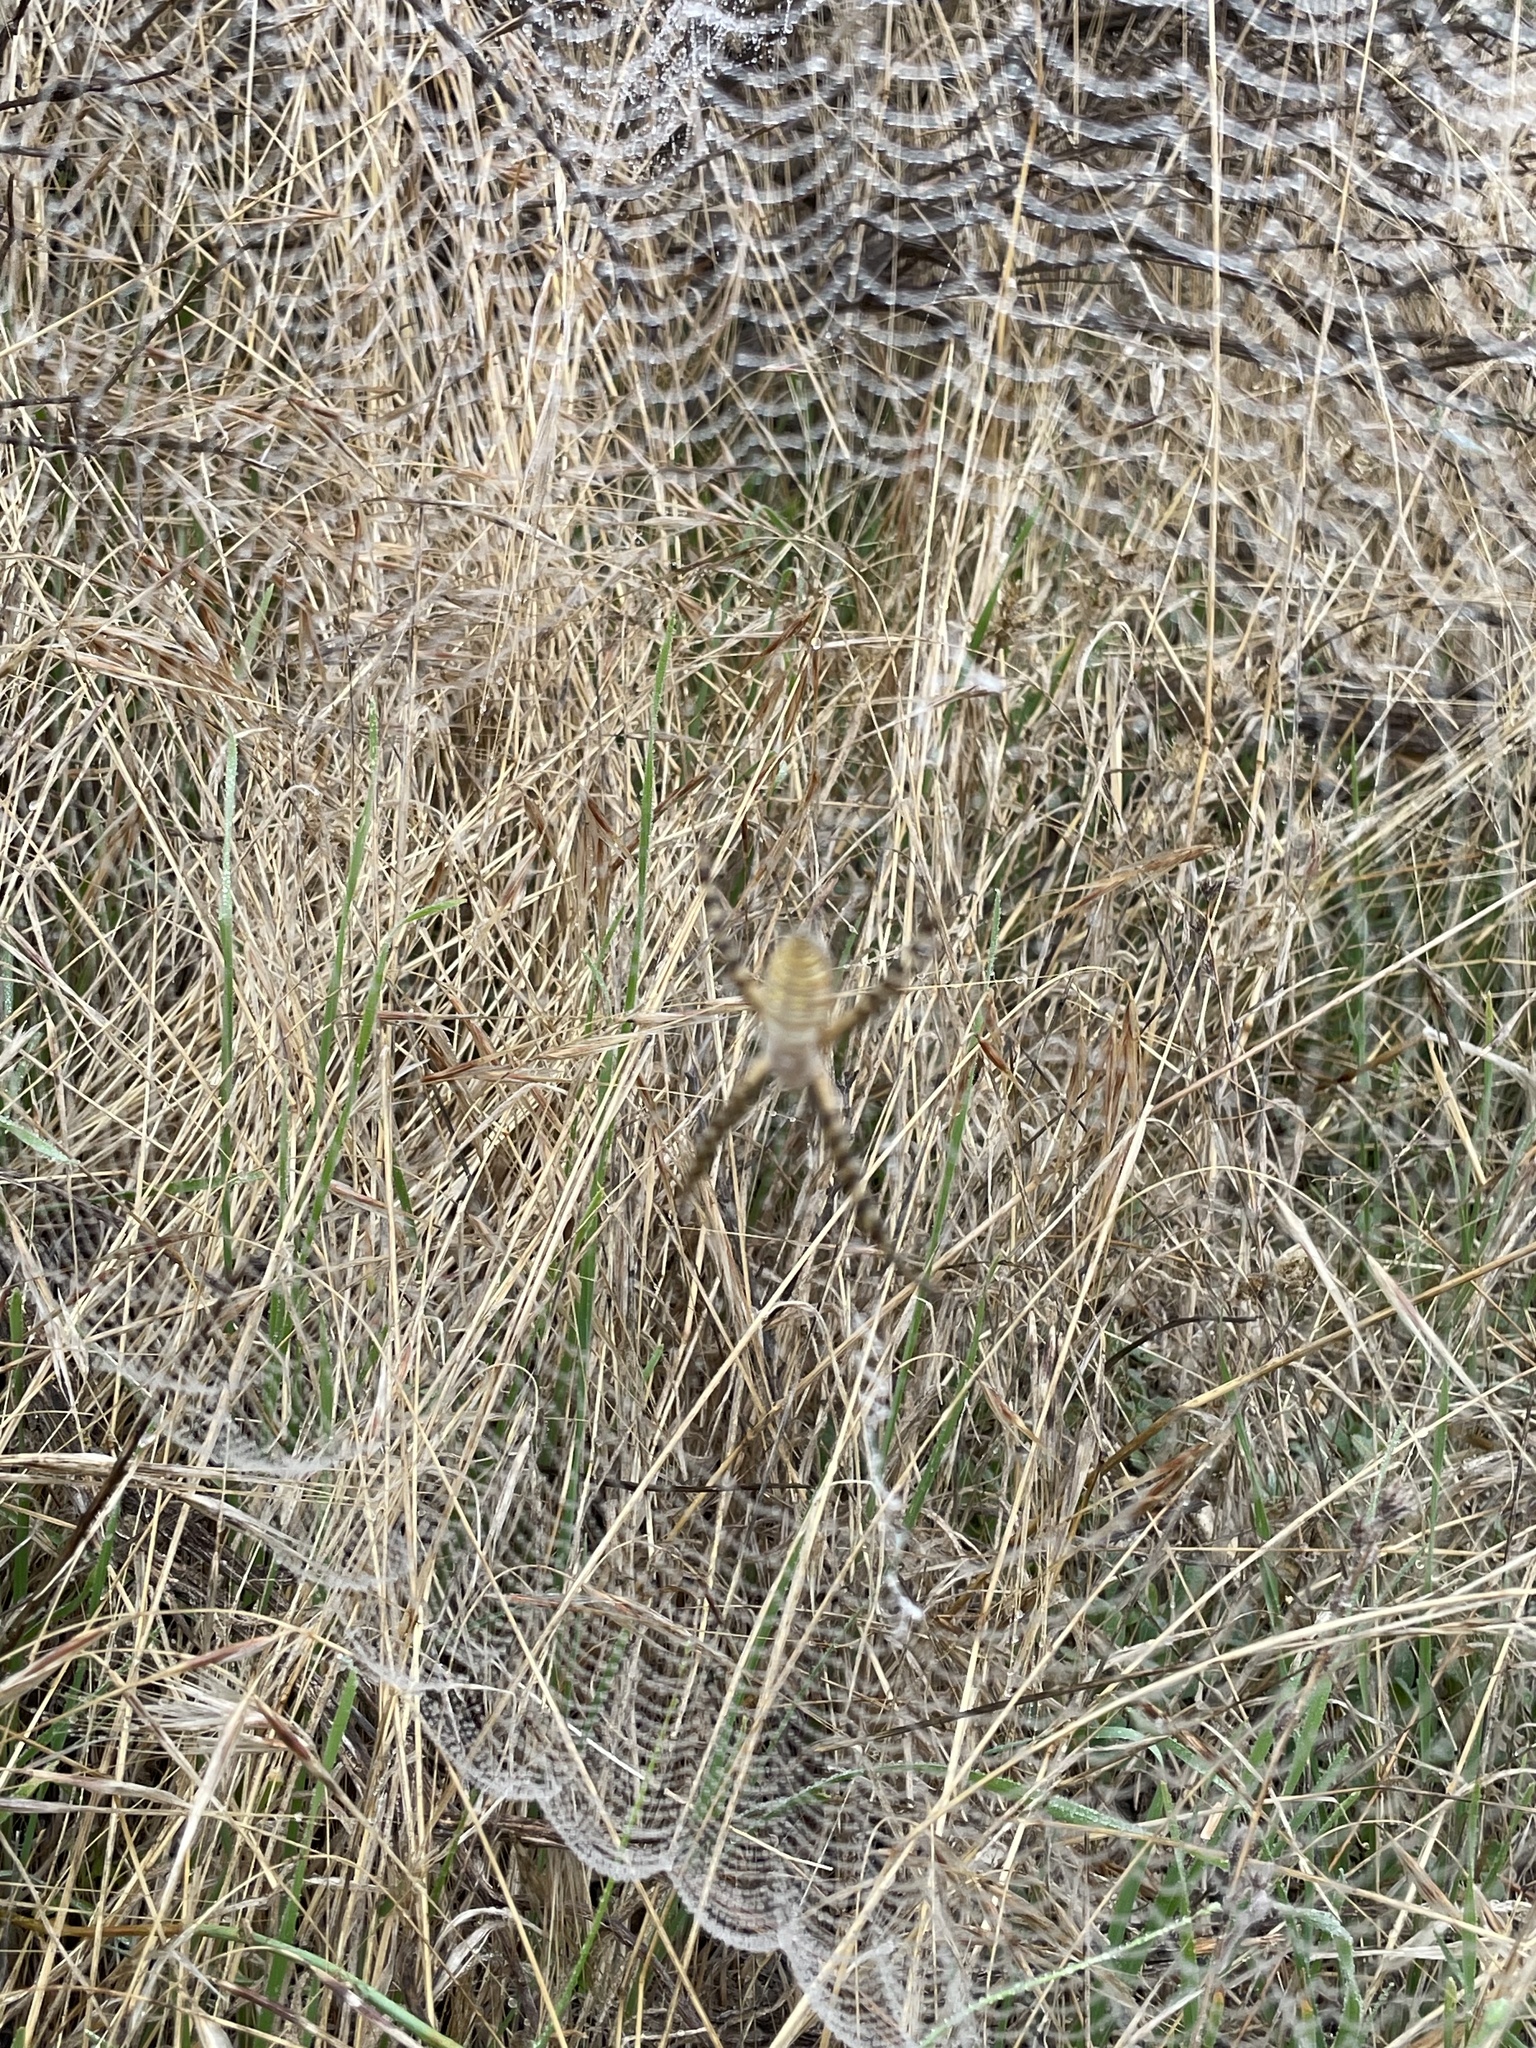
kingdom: Animalia
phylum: Arthropoda
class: Arachnida
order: Araneae
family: Araneidae
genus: Argiope
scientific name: Argiope trifasciata
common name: Banded garden spider
